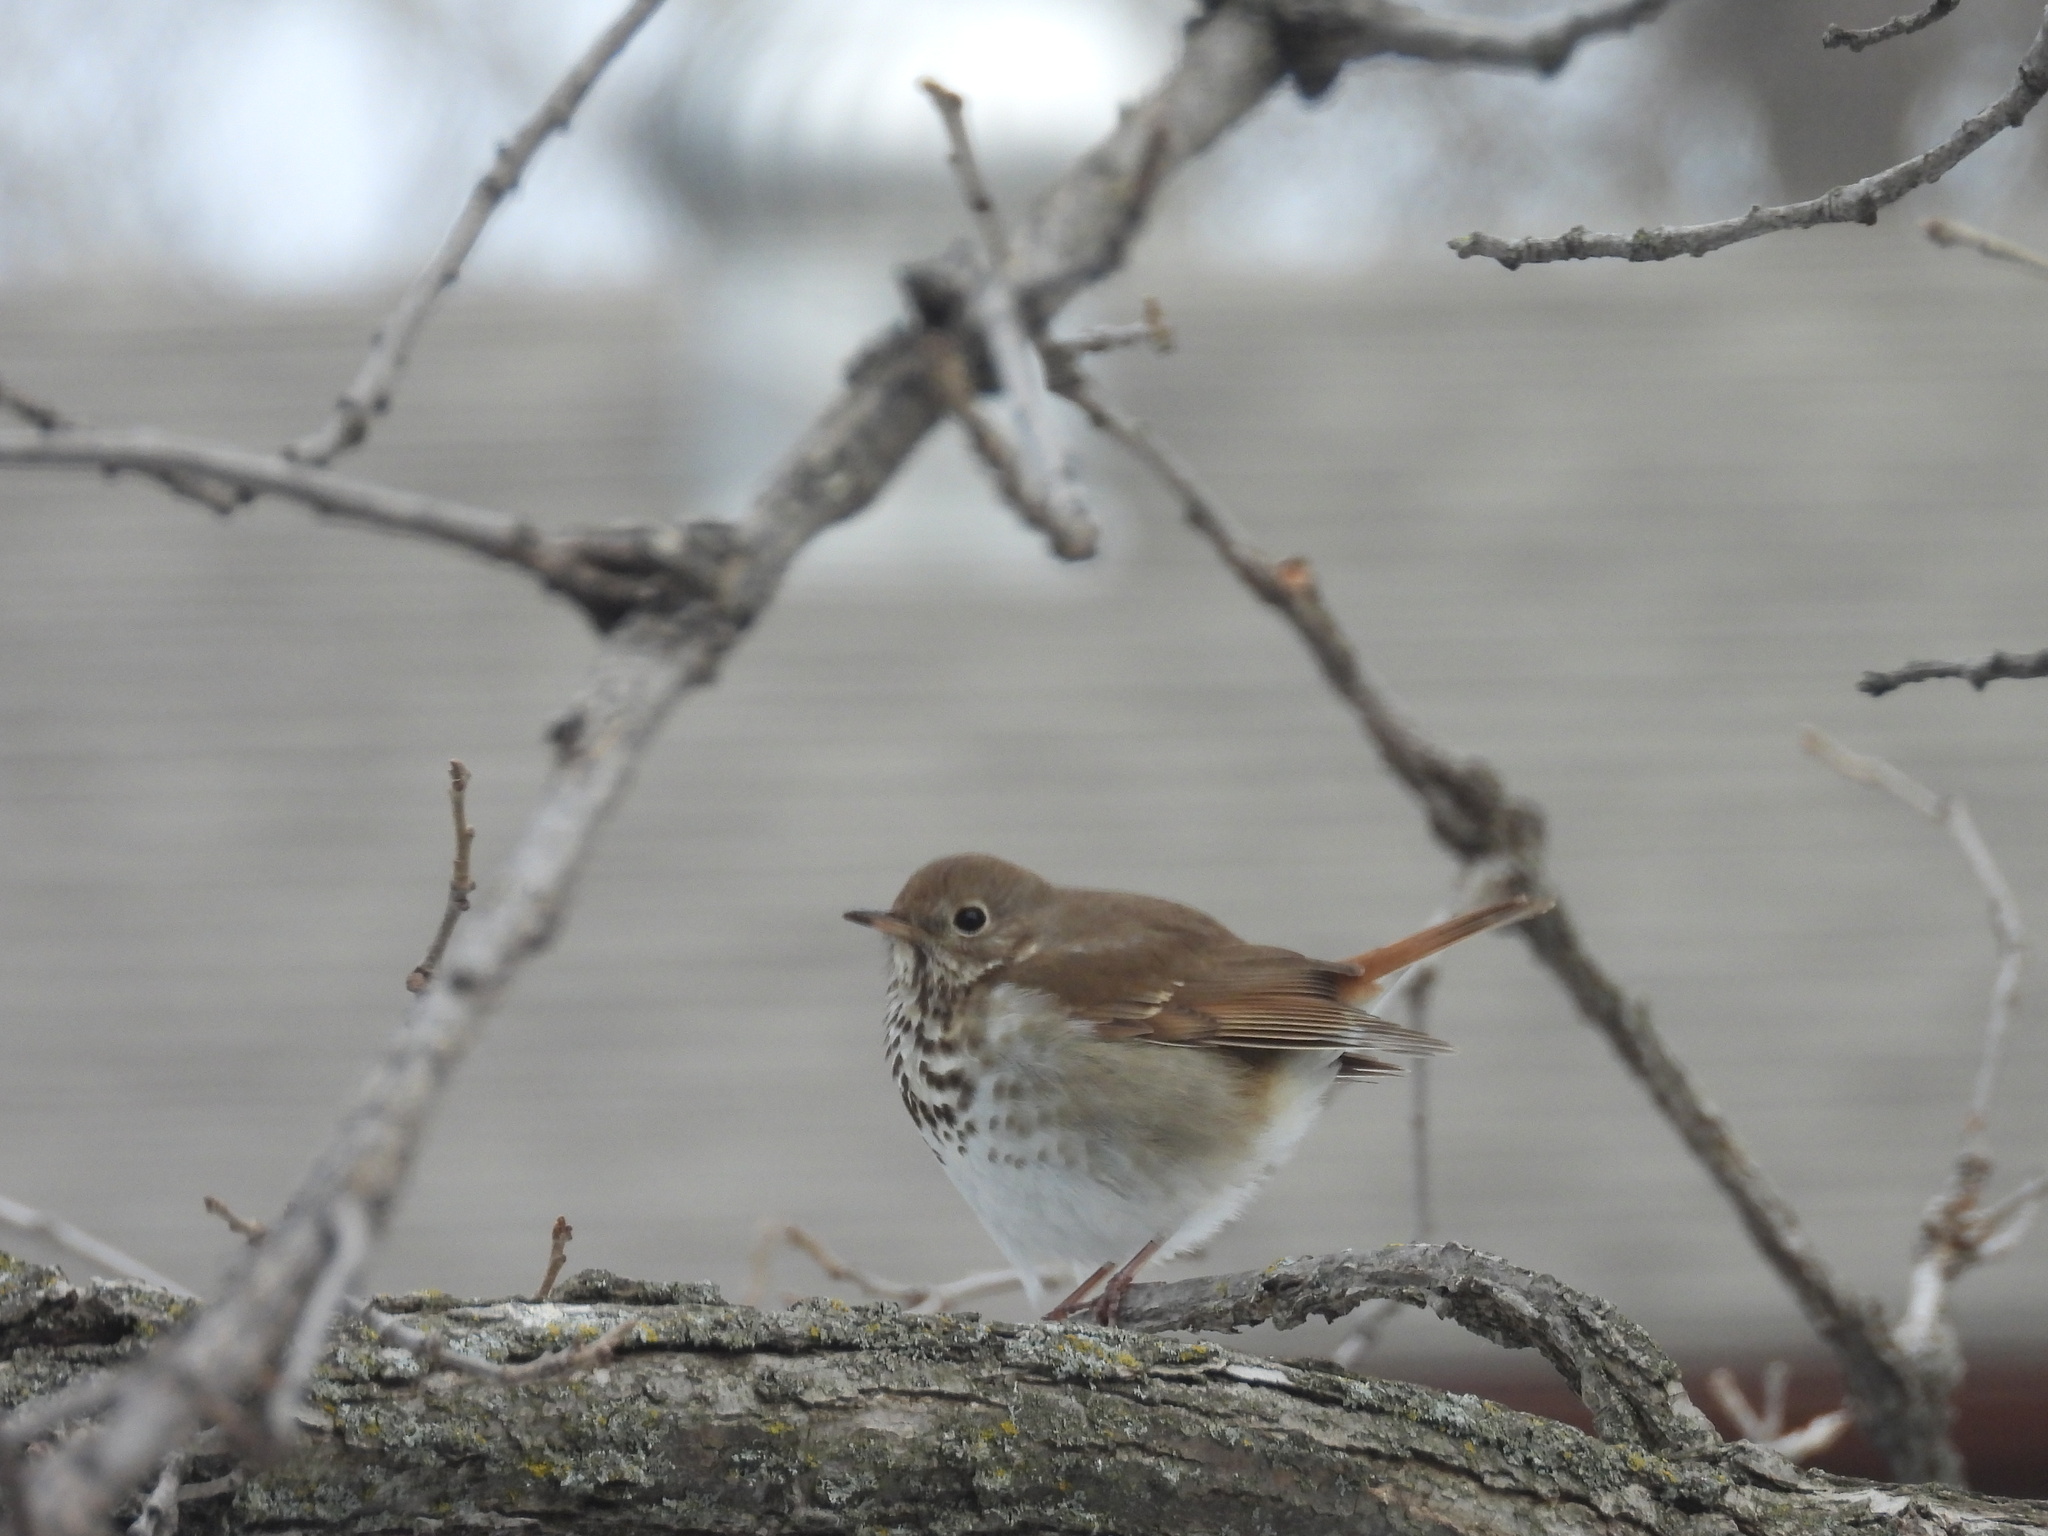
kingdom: Animalia
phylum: Chordata
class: Aves
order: Passeriformes
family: Turdidae
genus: Catharus
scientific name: Catharus guttatus
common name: Hermit thrush
